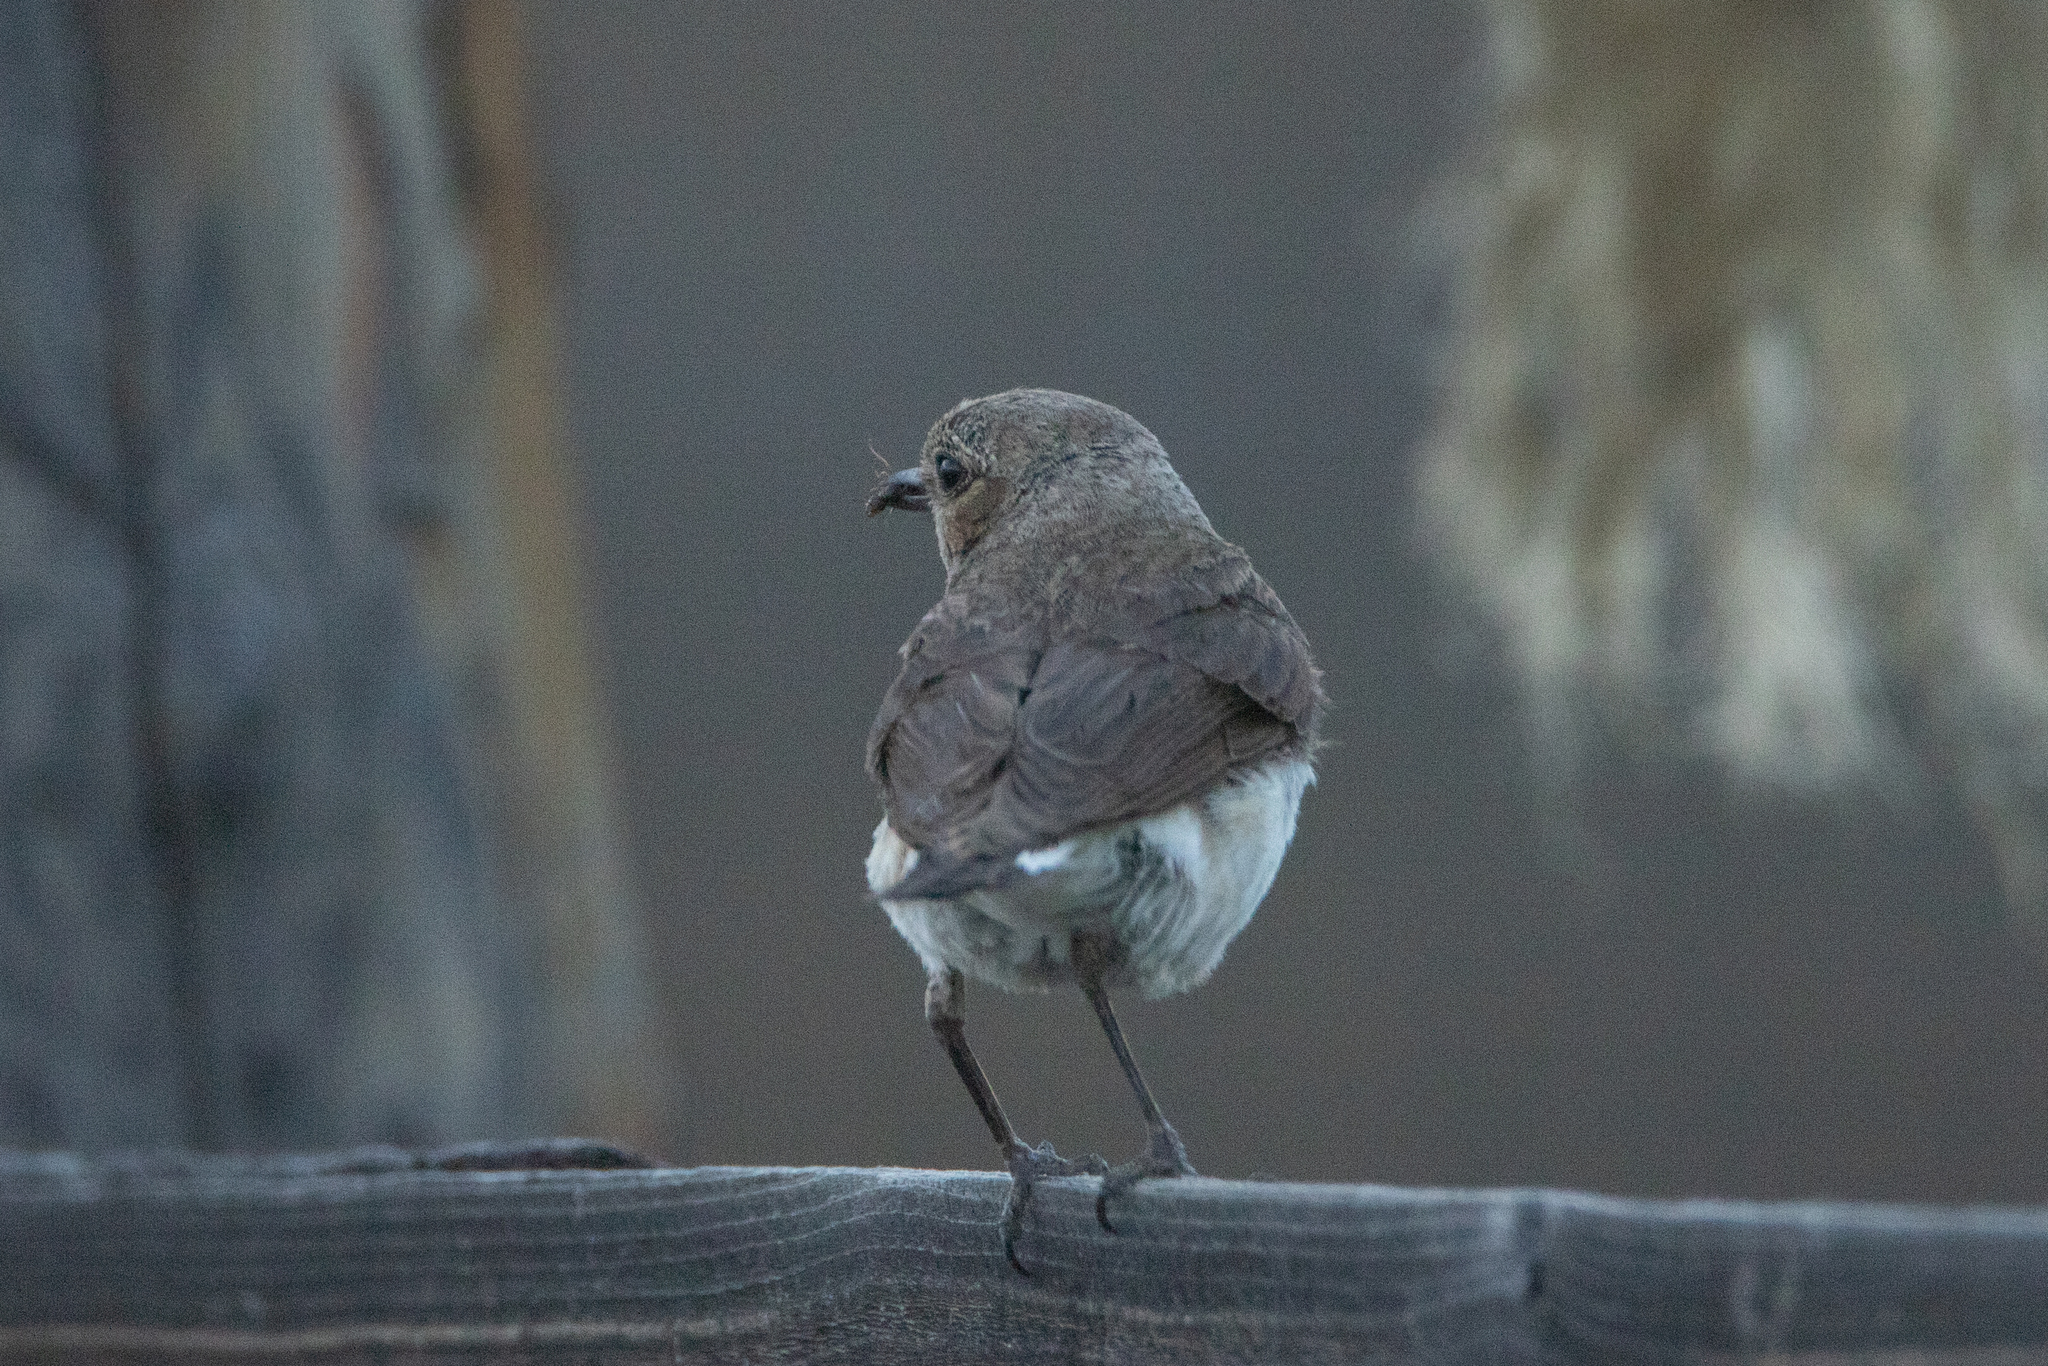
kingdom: Animalia
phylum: Chordata
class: Aves
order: Passeriformes
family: Muscicapidae
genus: Oenanthe
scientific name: Oenanthe pleschanka
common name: Pied wheatear
